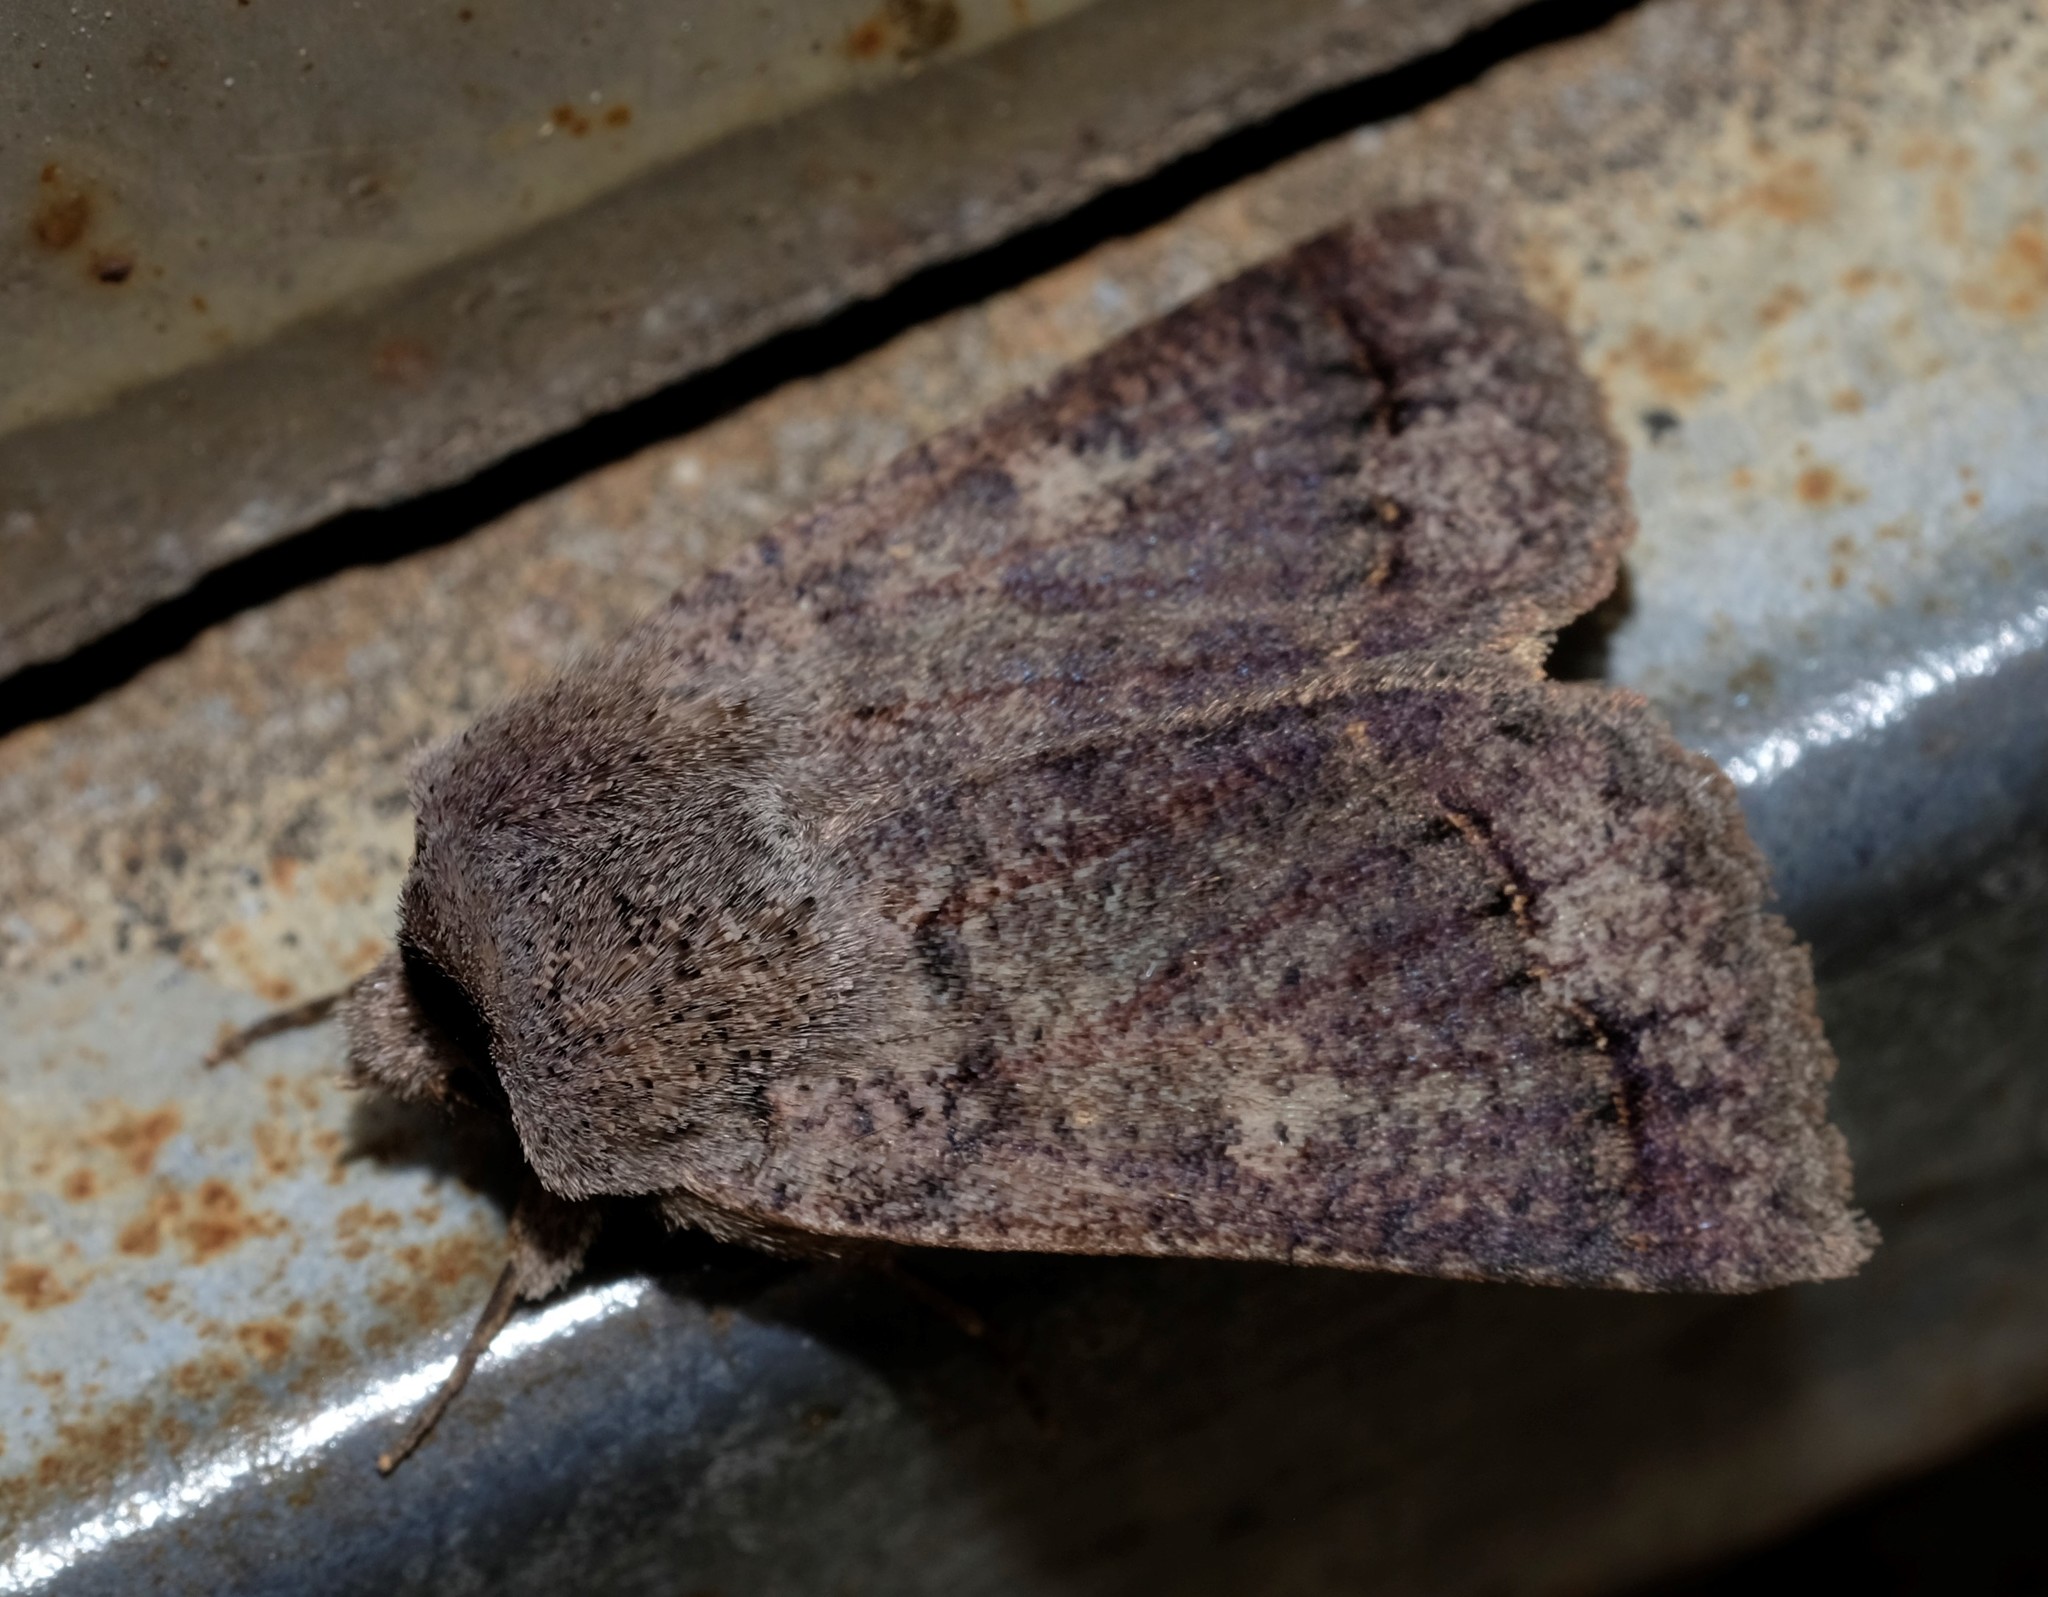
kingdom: Animalia
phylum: Arthropoda
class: Insecta
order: Lepidoptera
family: Erebidae
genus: Pantydia
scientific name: Pantydia diemeni
